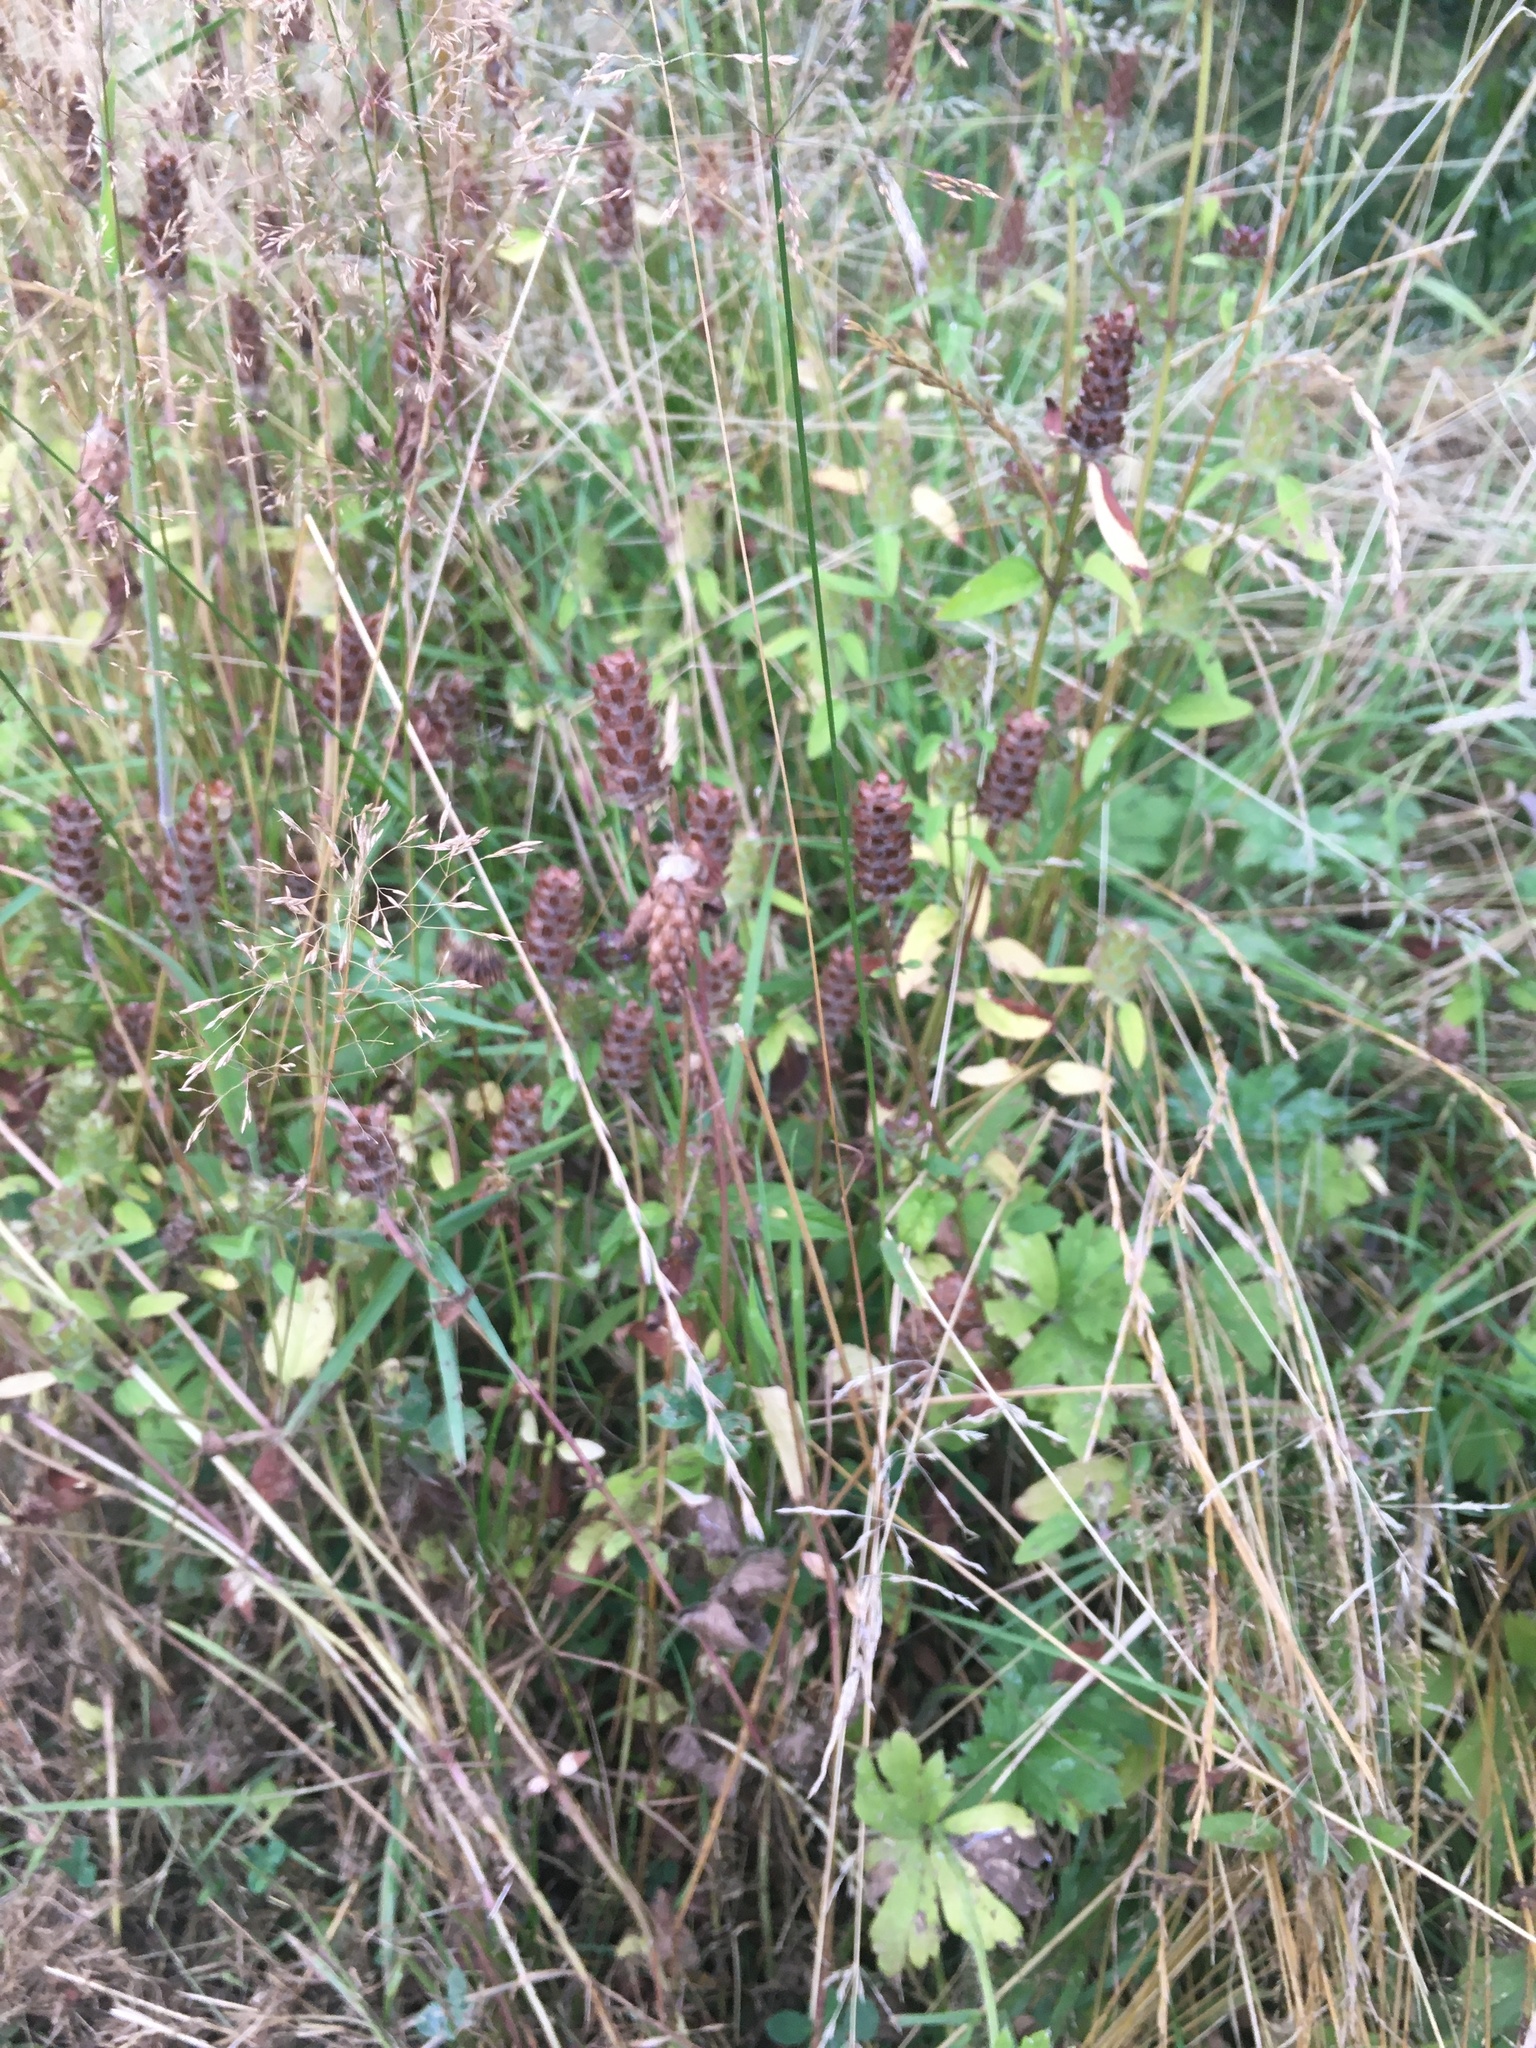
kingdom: Plantae
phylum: Tracheophyta
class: Magnoliopsida
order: Lamiales
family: Lamiaceae
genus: Prunella
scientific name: Prunella vulgaris
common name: Heal-all
